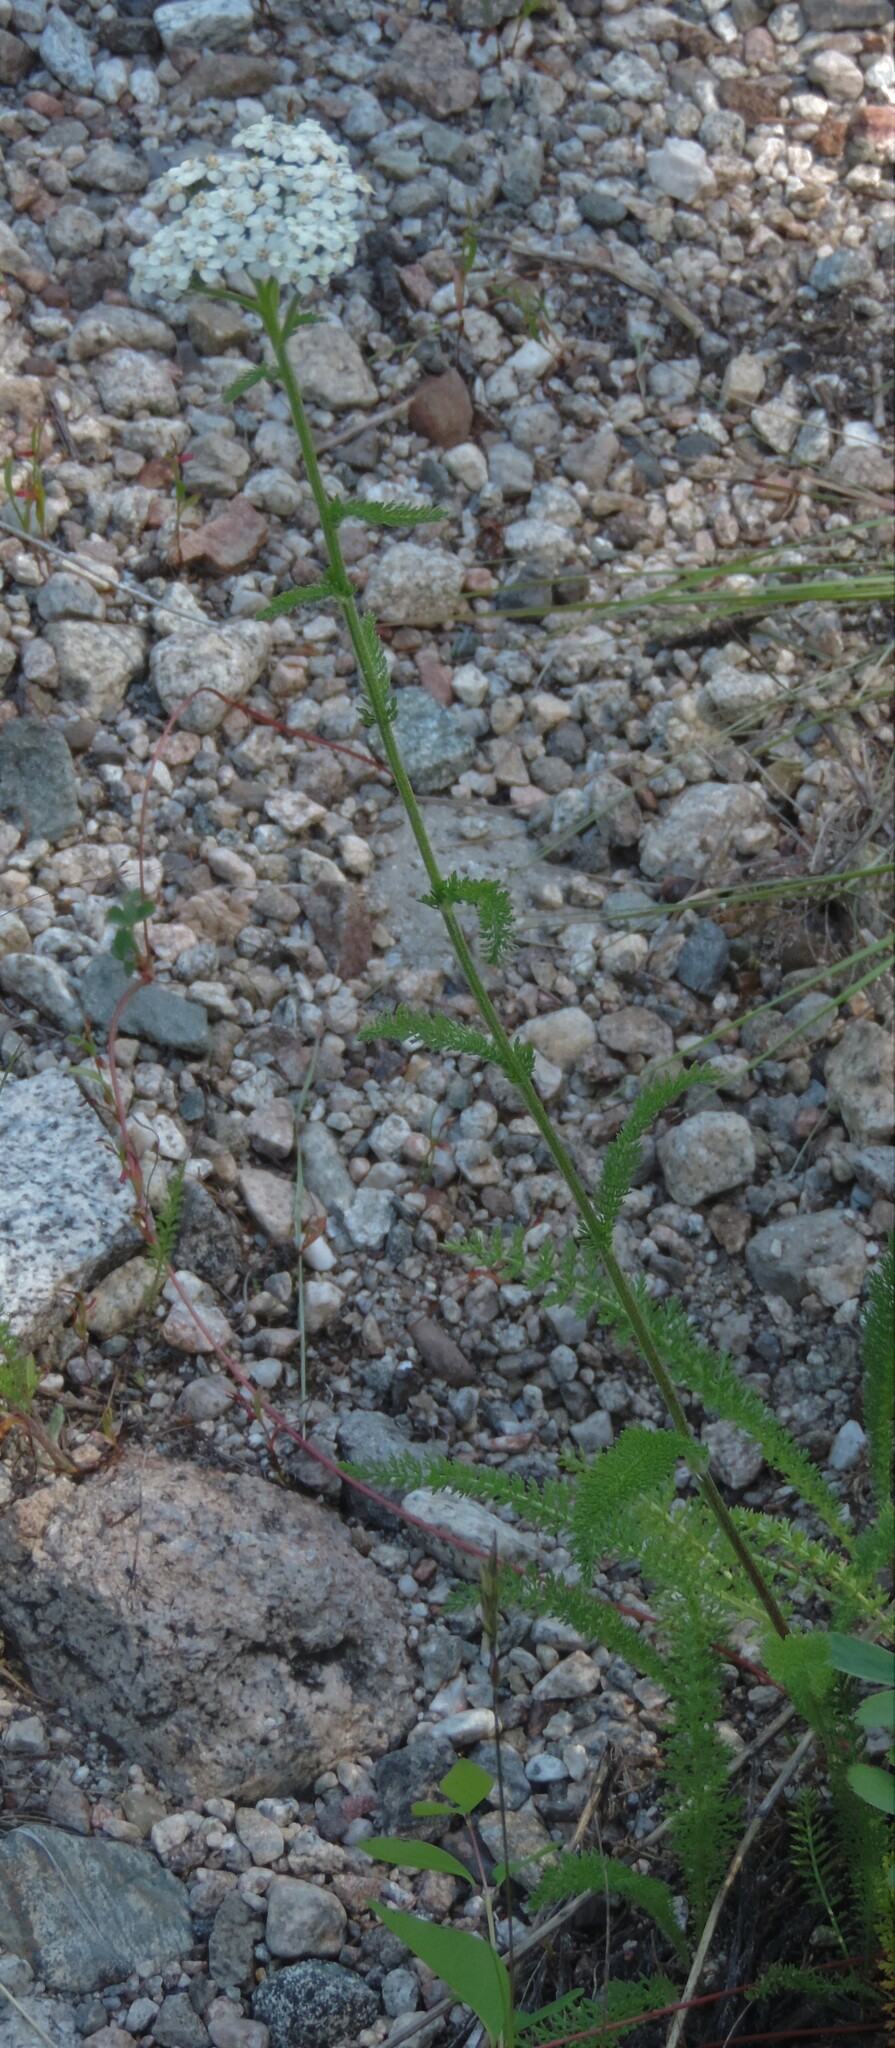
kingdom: Plantae
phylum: Tracheophyta
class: Magnoliopsida
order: Asterales
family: Asteraceae
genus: Achillea
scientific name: Achillea millefolium
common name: Yarrow
